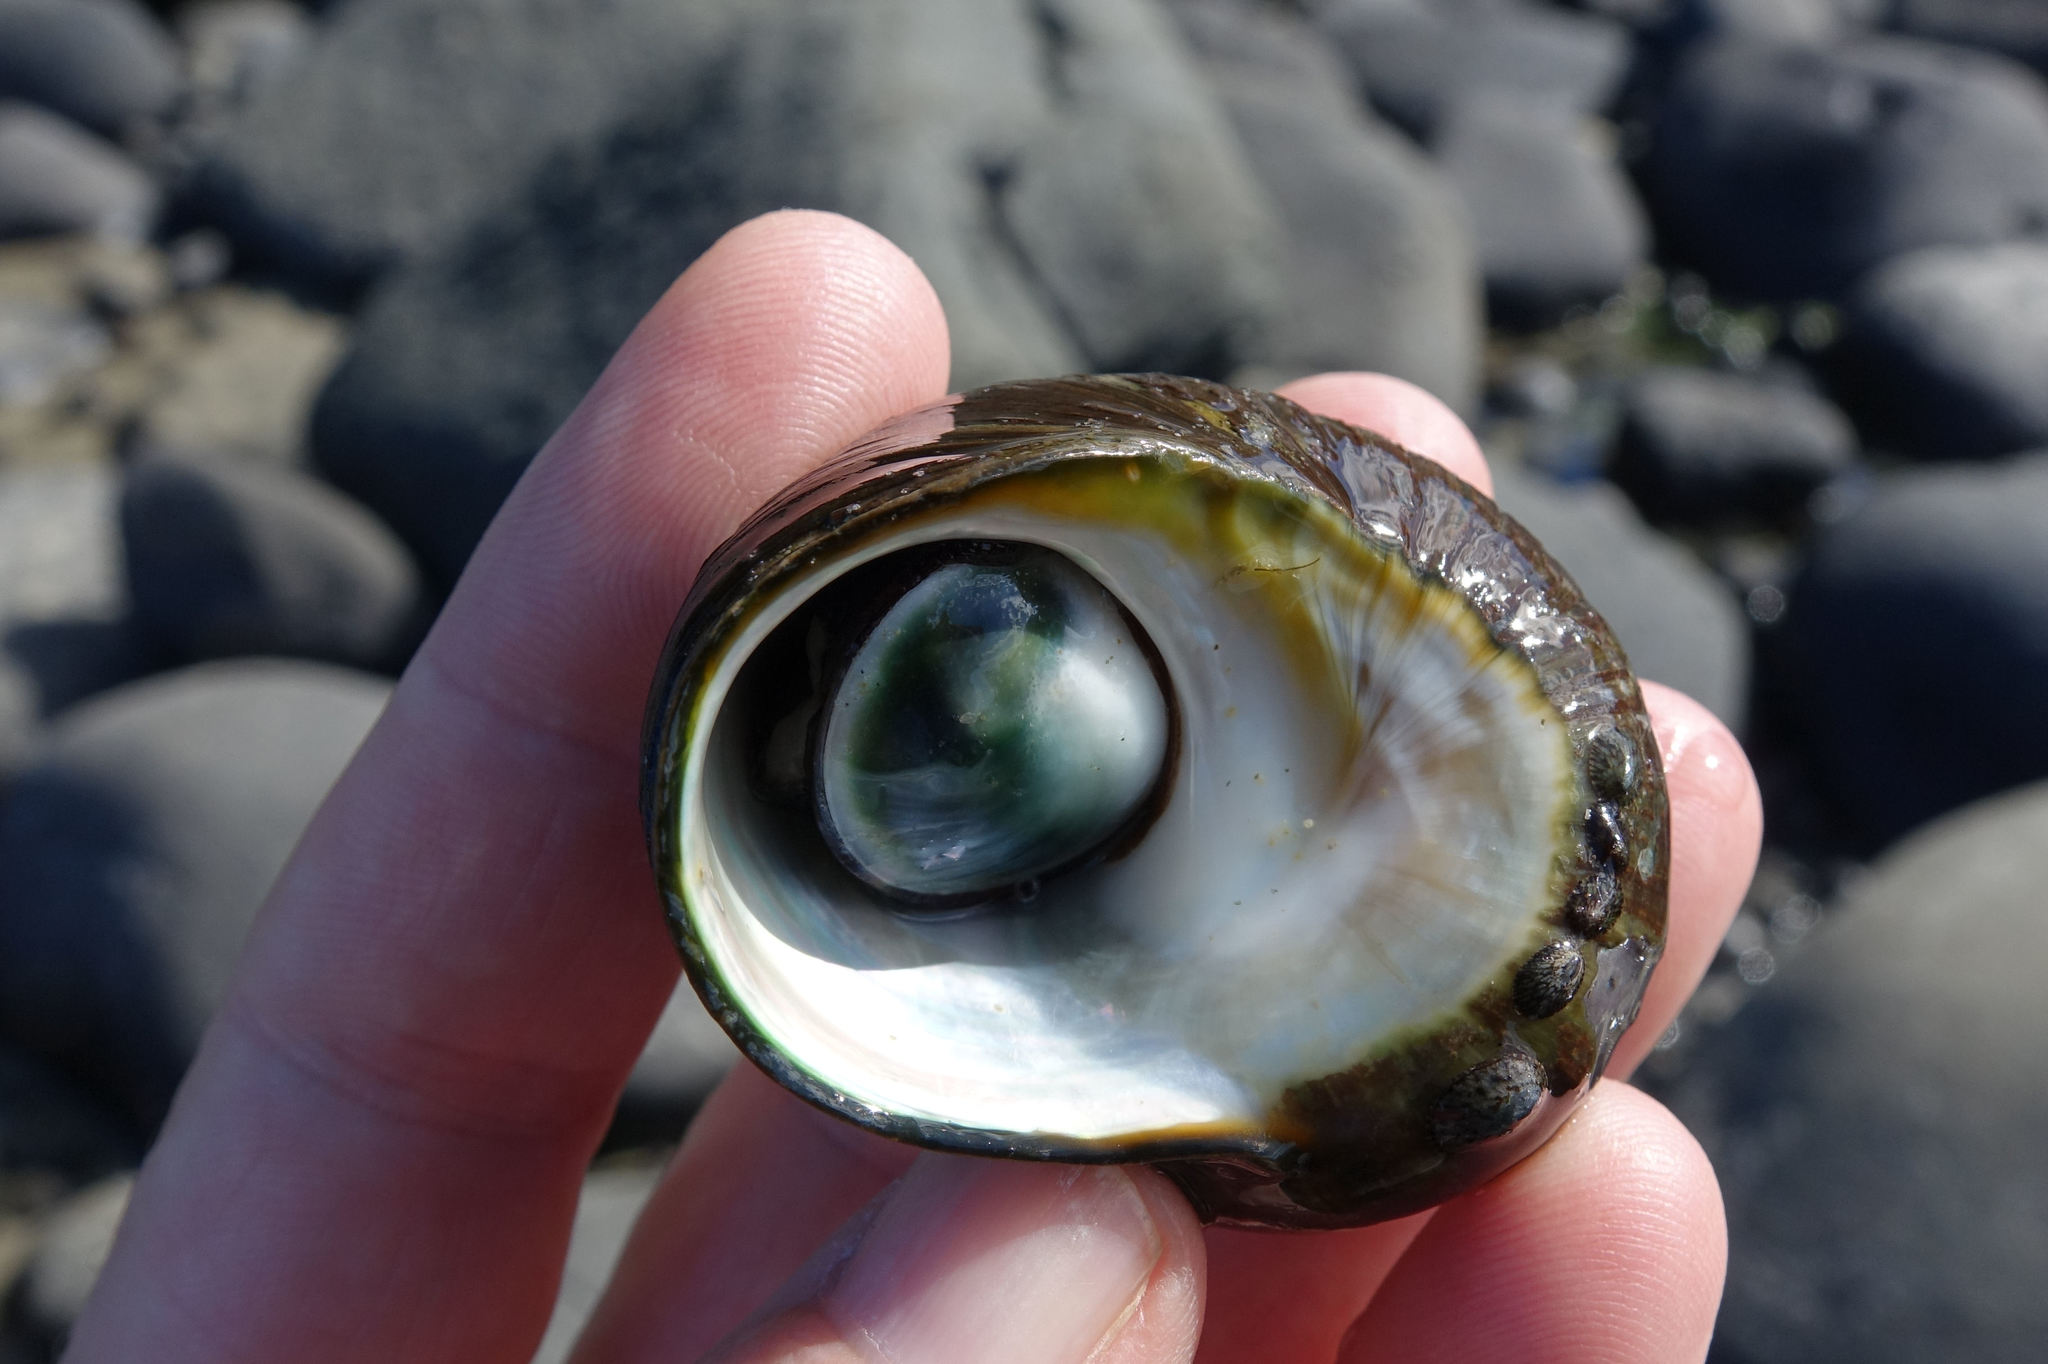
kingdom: Animalia
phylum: Mollusca
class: Gastropoda
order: Trochida
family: Turbinidae
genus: Lunella
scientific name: Lunella smaragda
